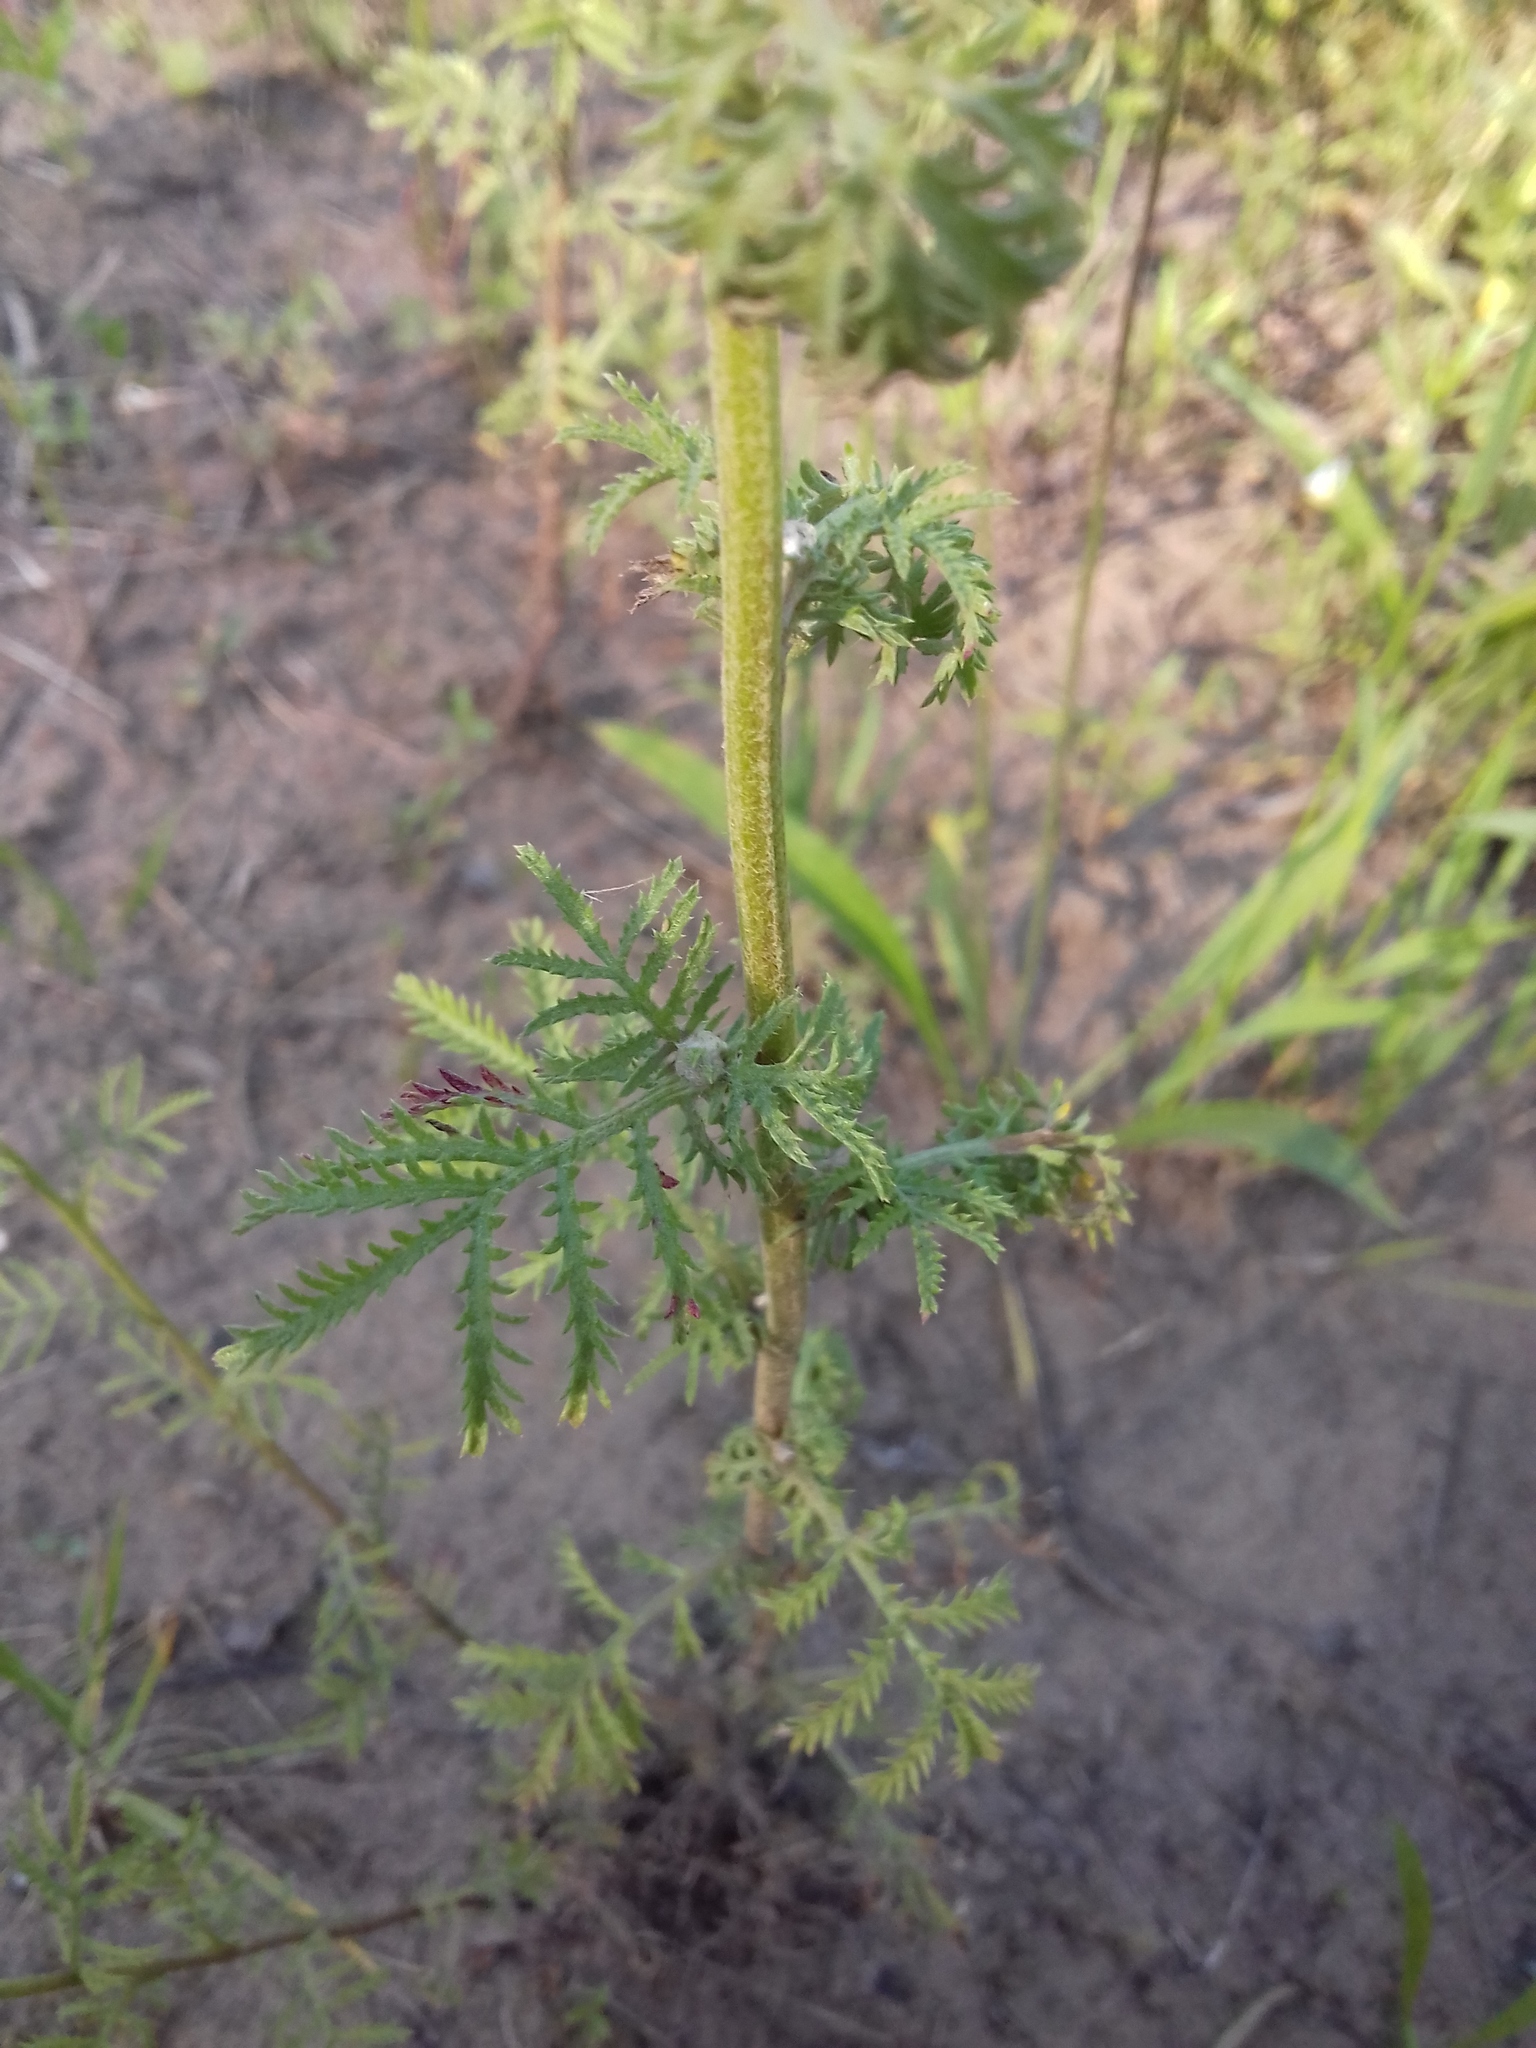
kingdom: Plantae
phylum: Tracheophyta
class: Magnoliopsida
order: Asterales
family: Asteraceae
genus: Cota
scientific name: Cota tinctoria
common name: Golden chamomile
